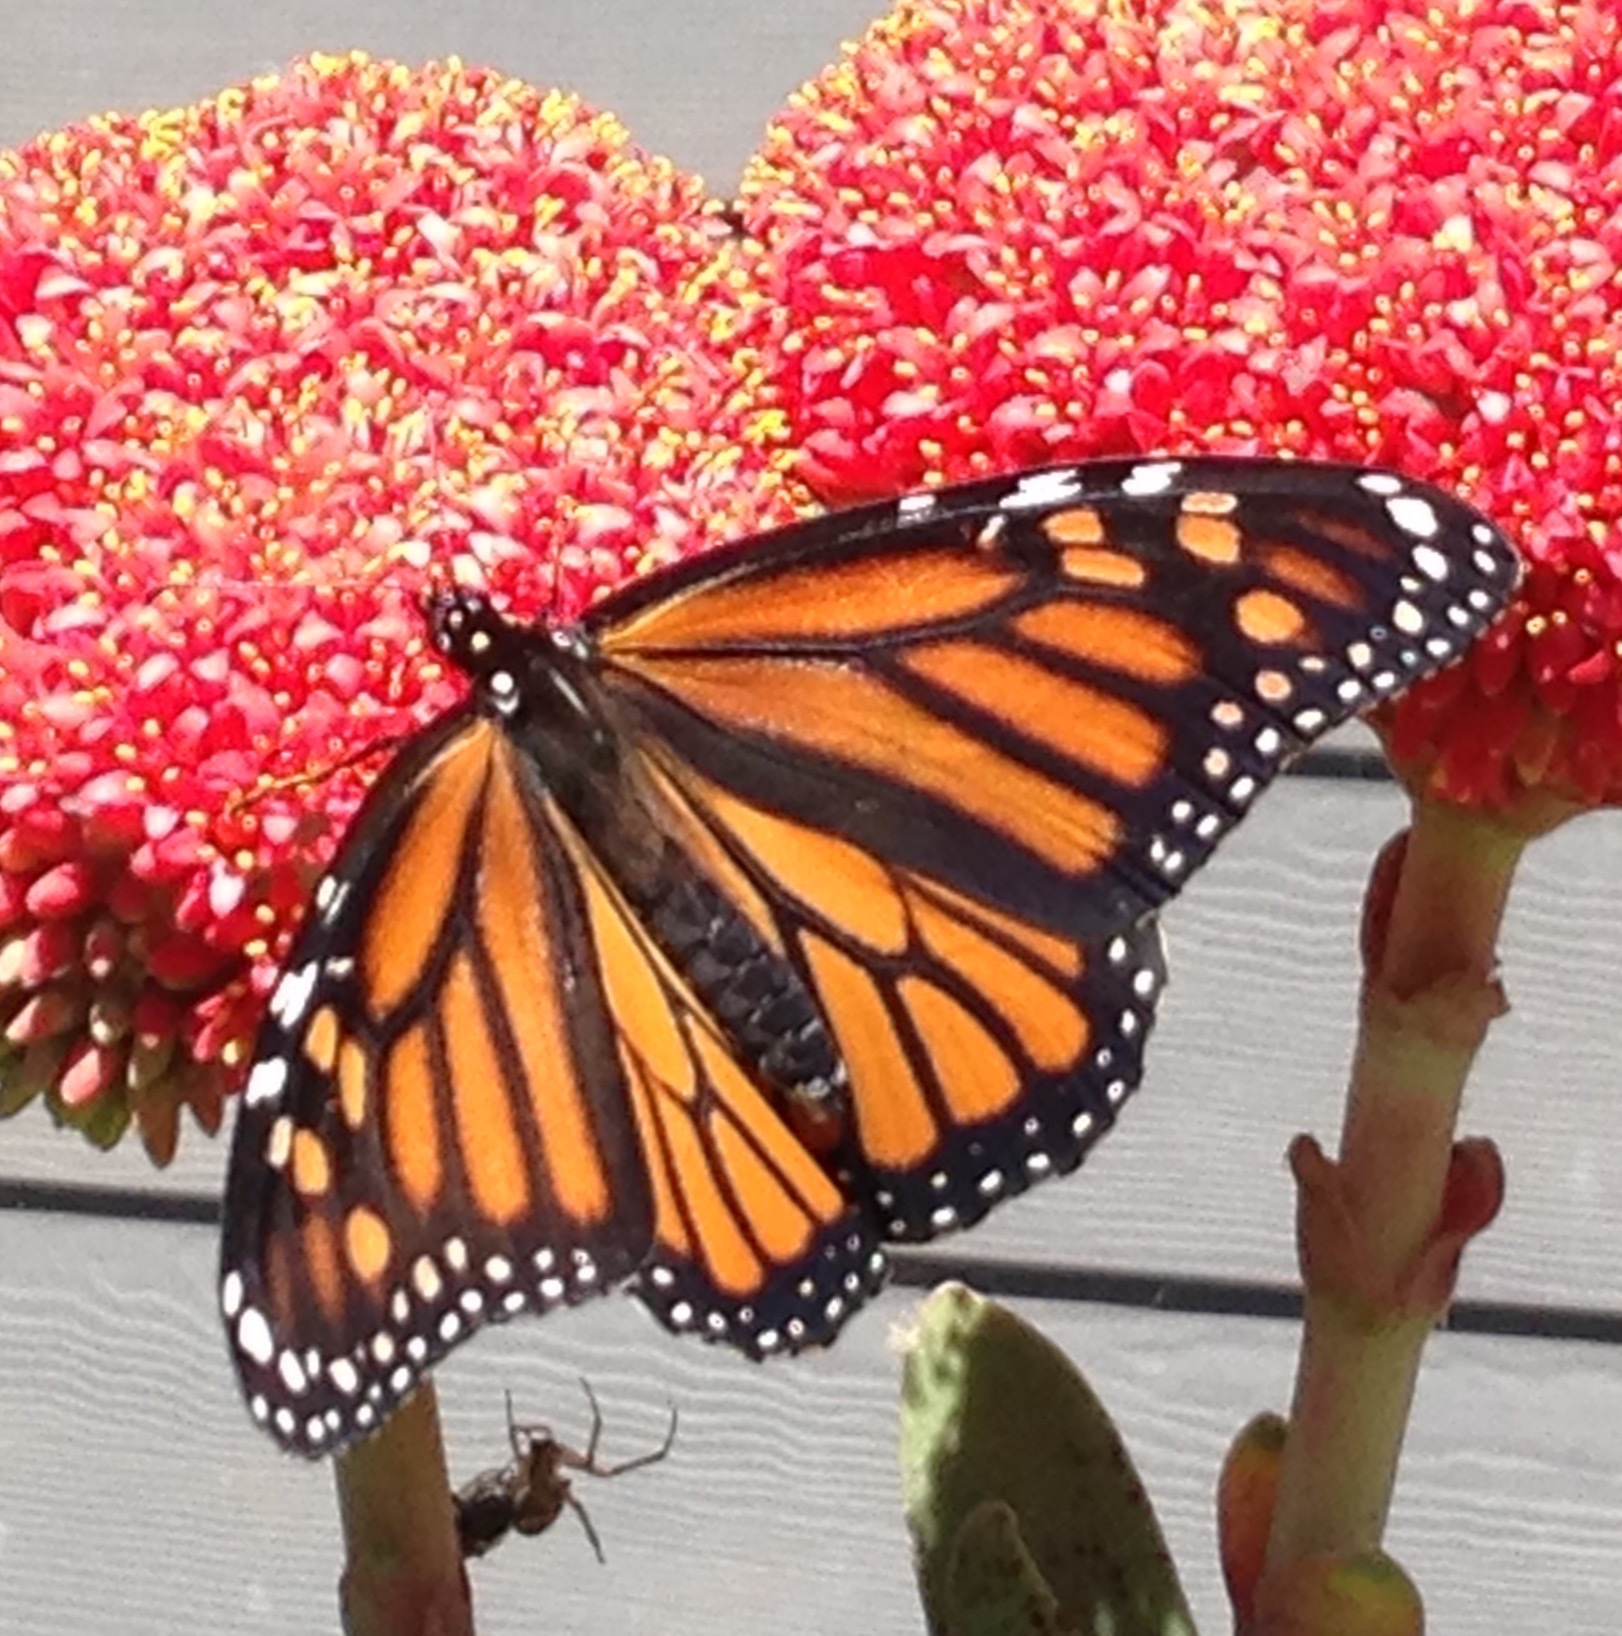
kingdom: Animalia
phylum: Arthropoda
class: Insecta
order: Lepidoptera
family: Nymphalidae
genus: Danaus
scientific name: Danaus plexippus
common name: Monarch
